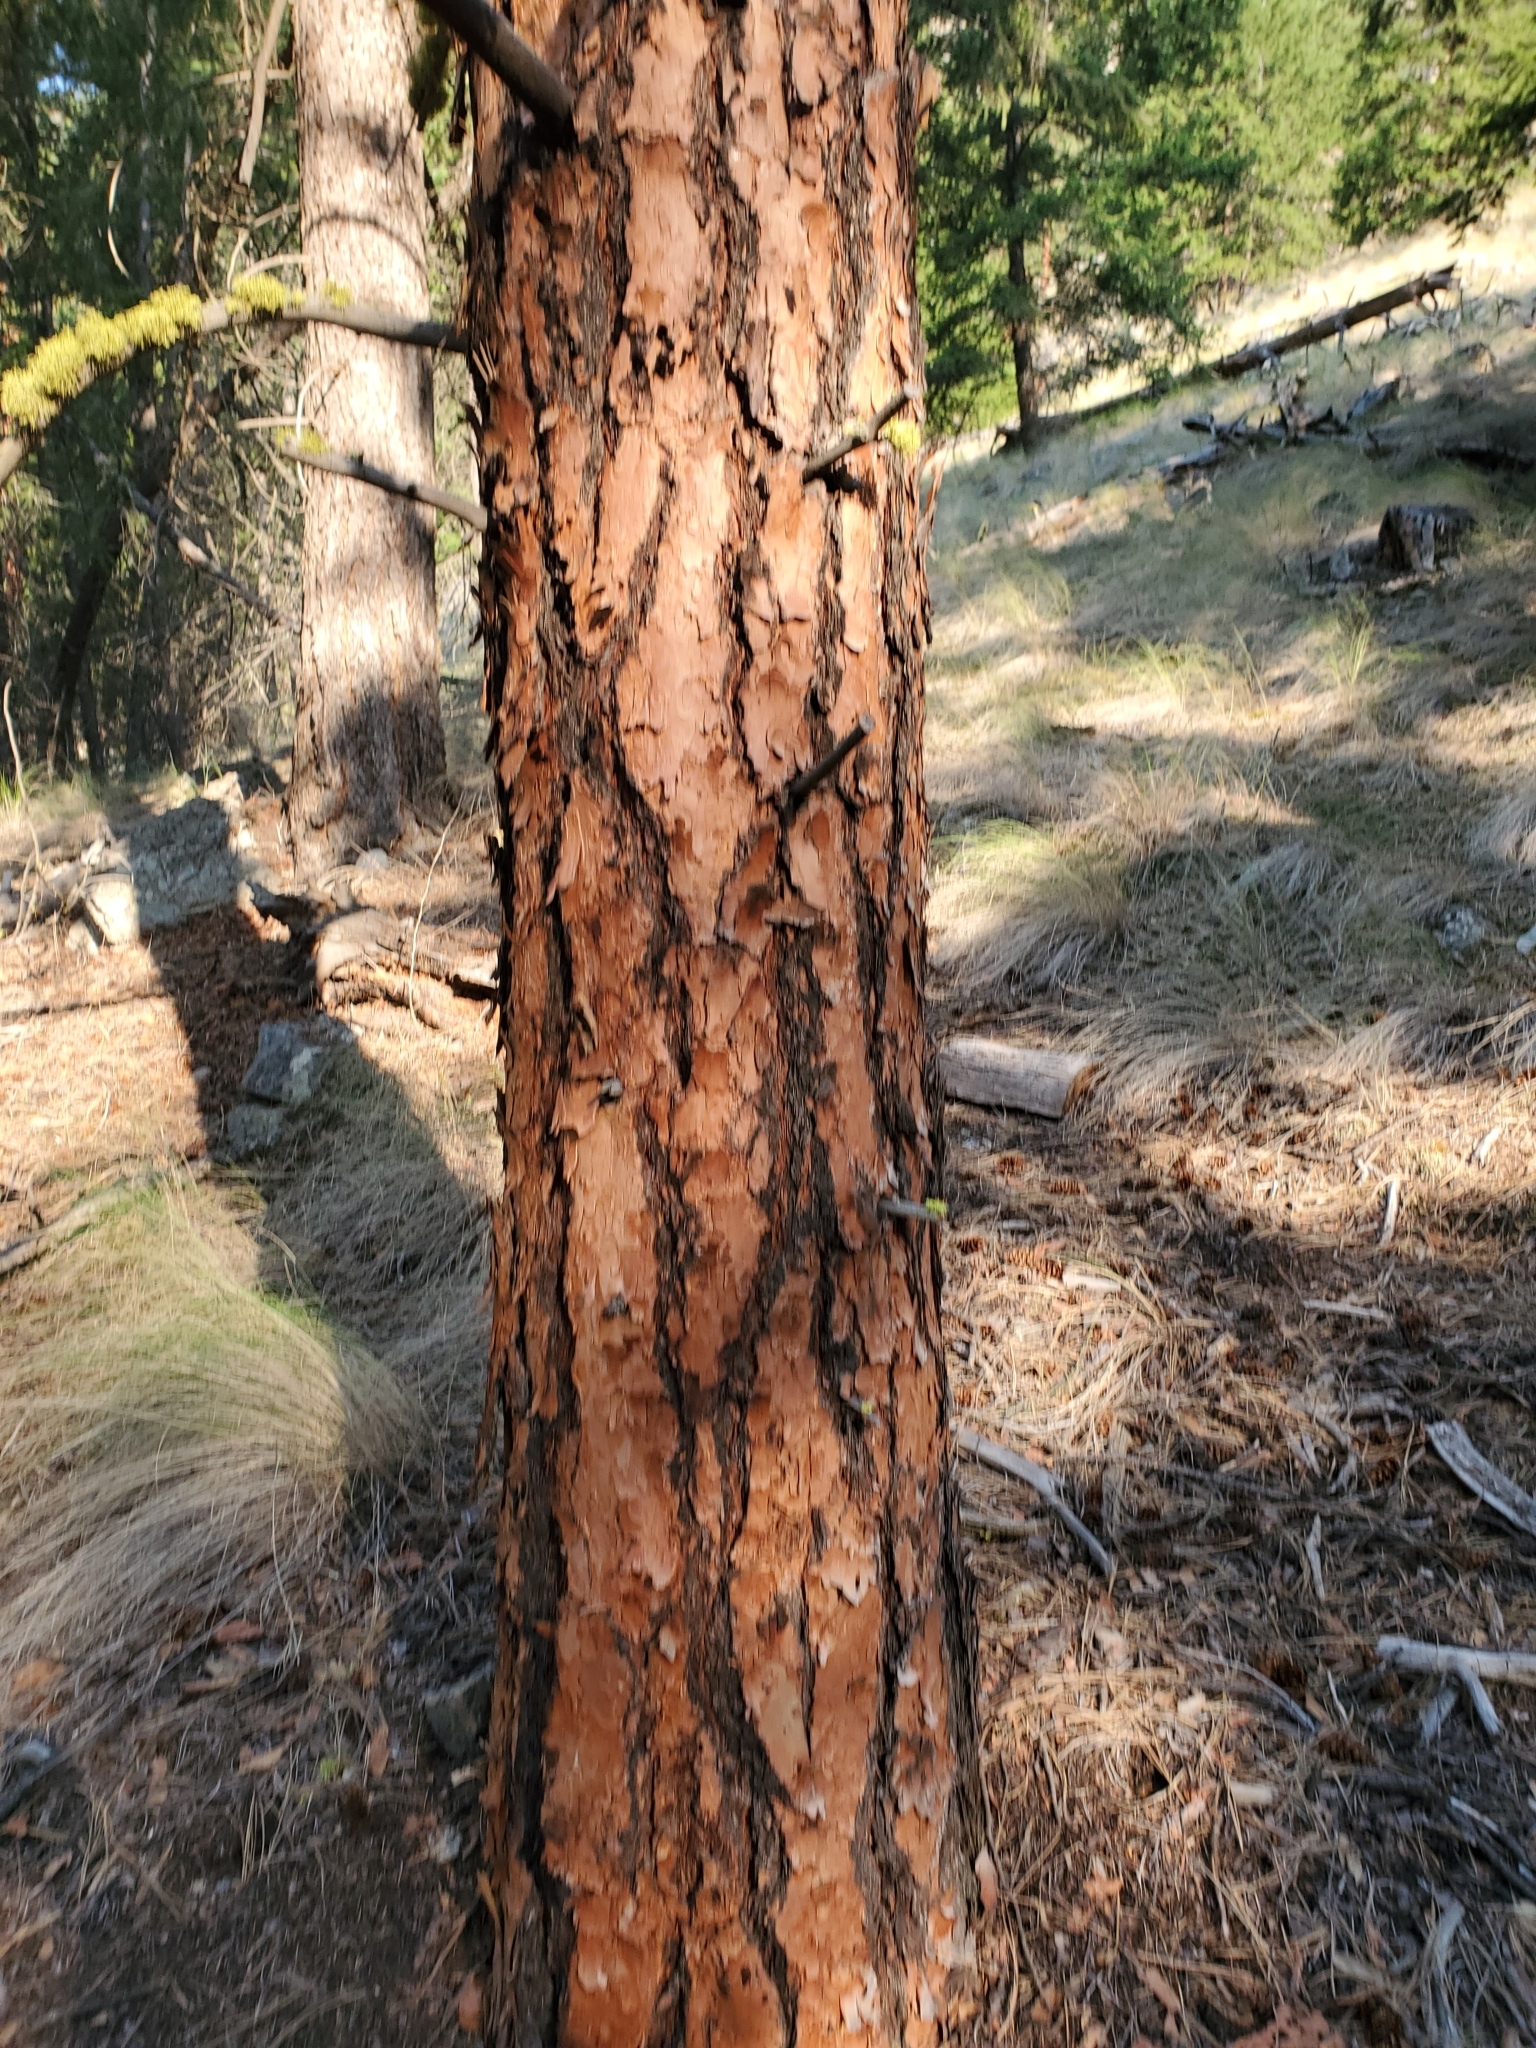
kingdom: Plantae
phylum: Tracheophyta
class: Pinopsida
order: Pinales
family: Pinaceae
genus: Pinus
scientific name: Pinus ponderosa
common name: Western yellow-pine
